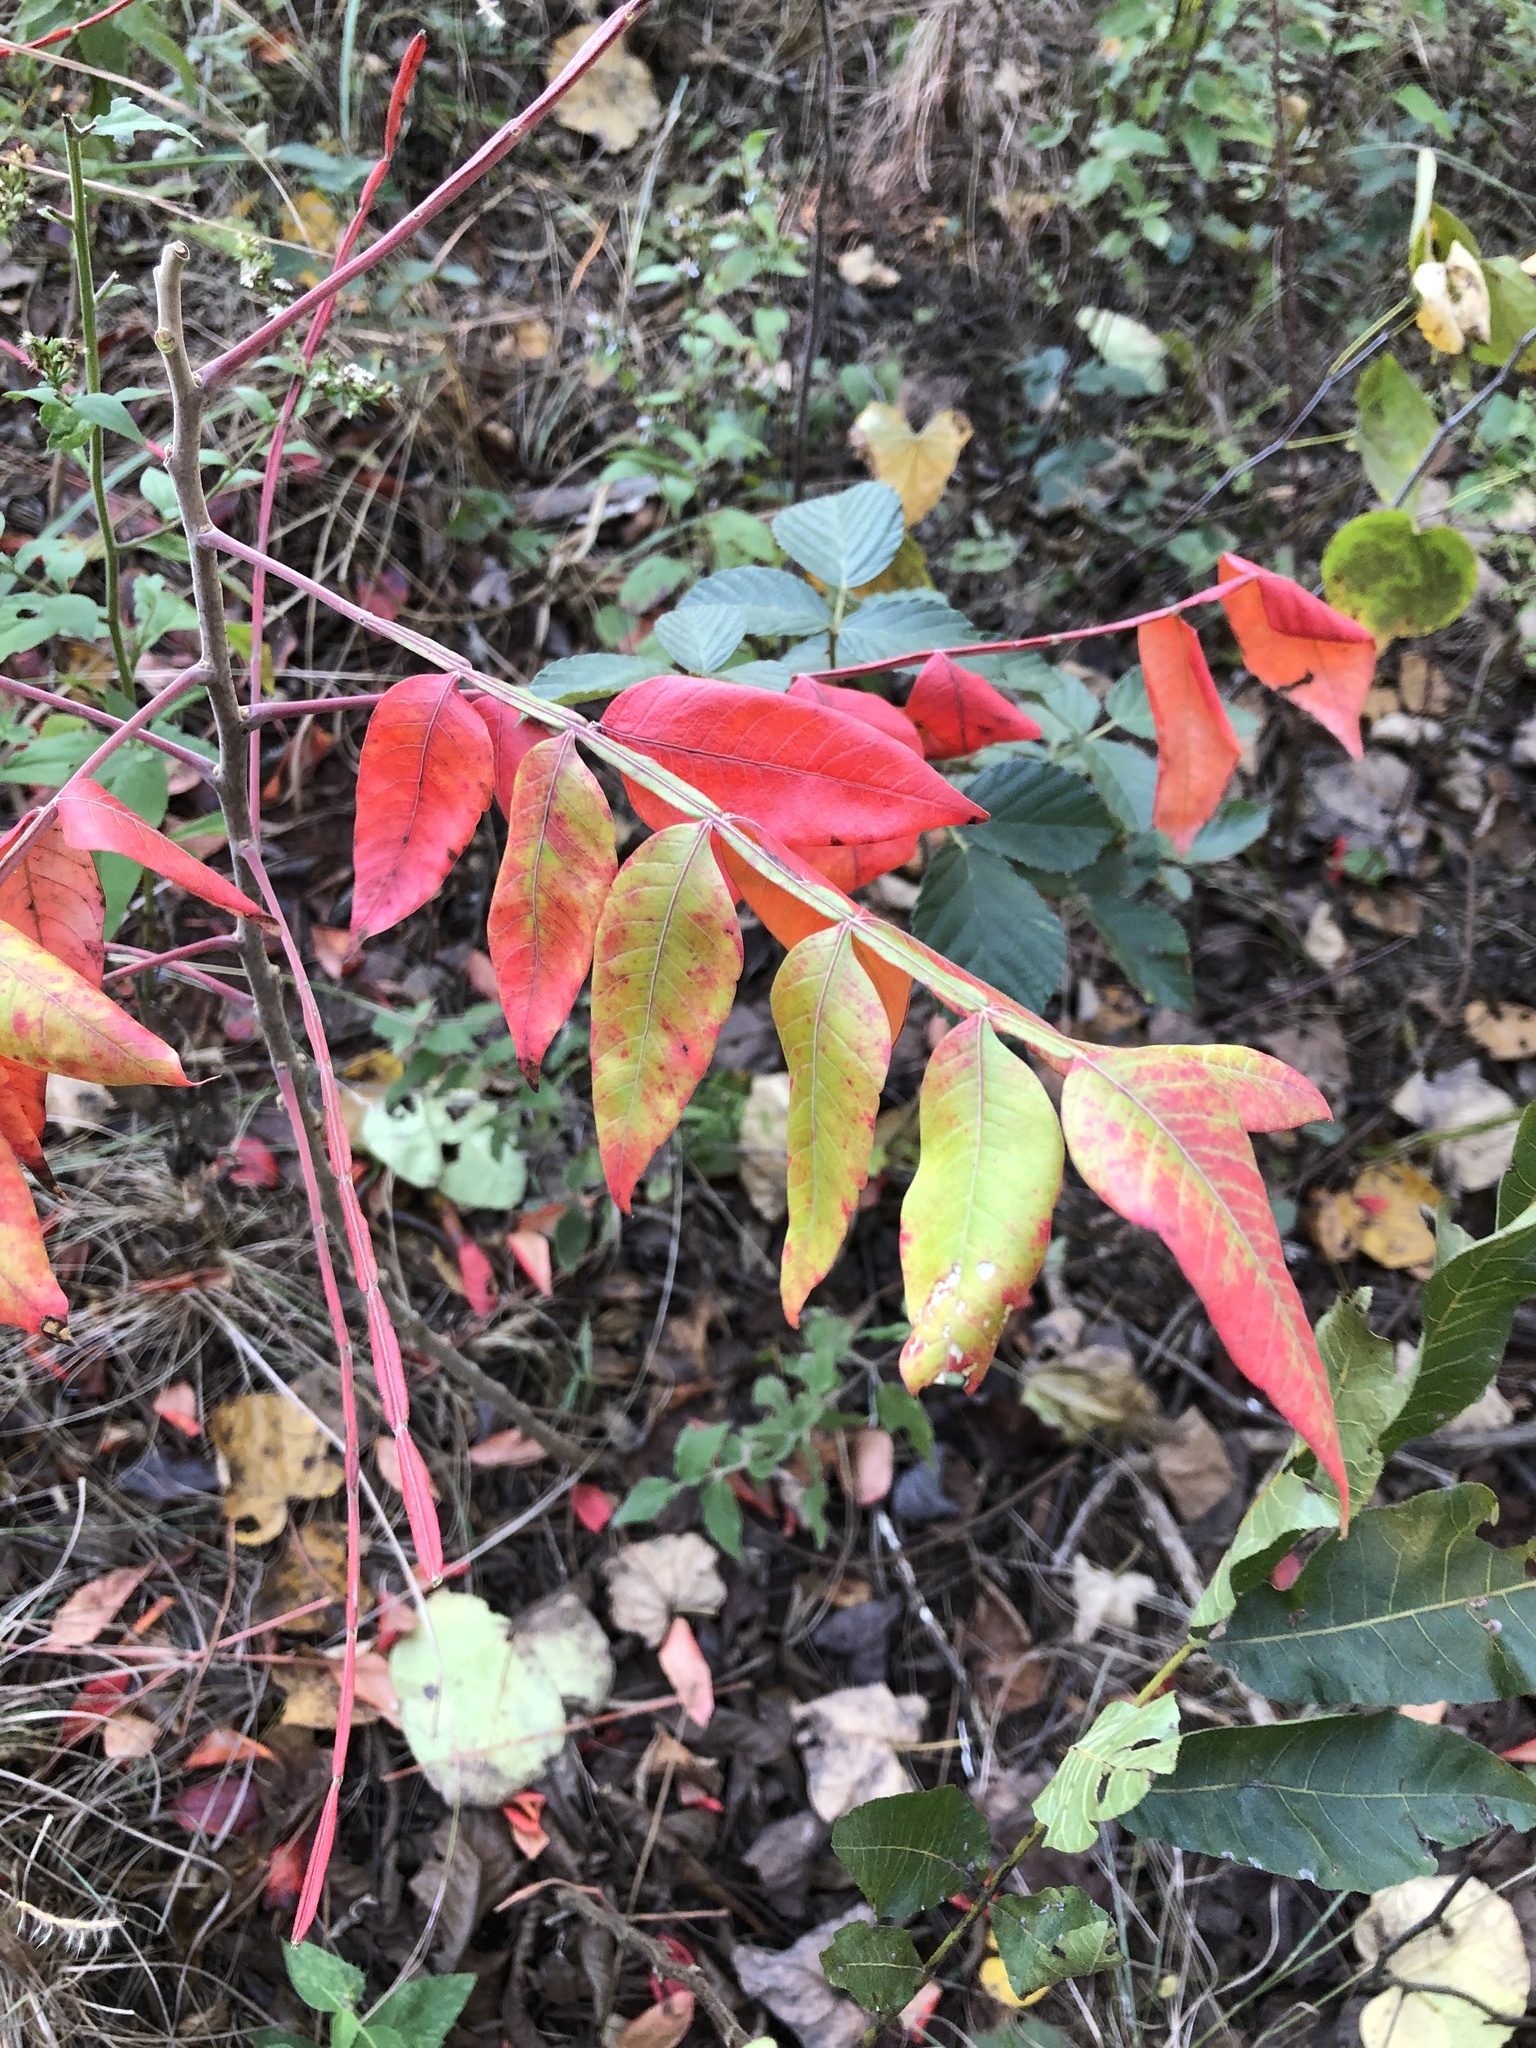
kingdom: Plantae
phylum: Tracheophyta
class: Magnoliopsida
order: Sapindales
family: Anacardiaceae
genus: Rhus
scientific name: Rhus copallina
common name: Shining sumac
